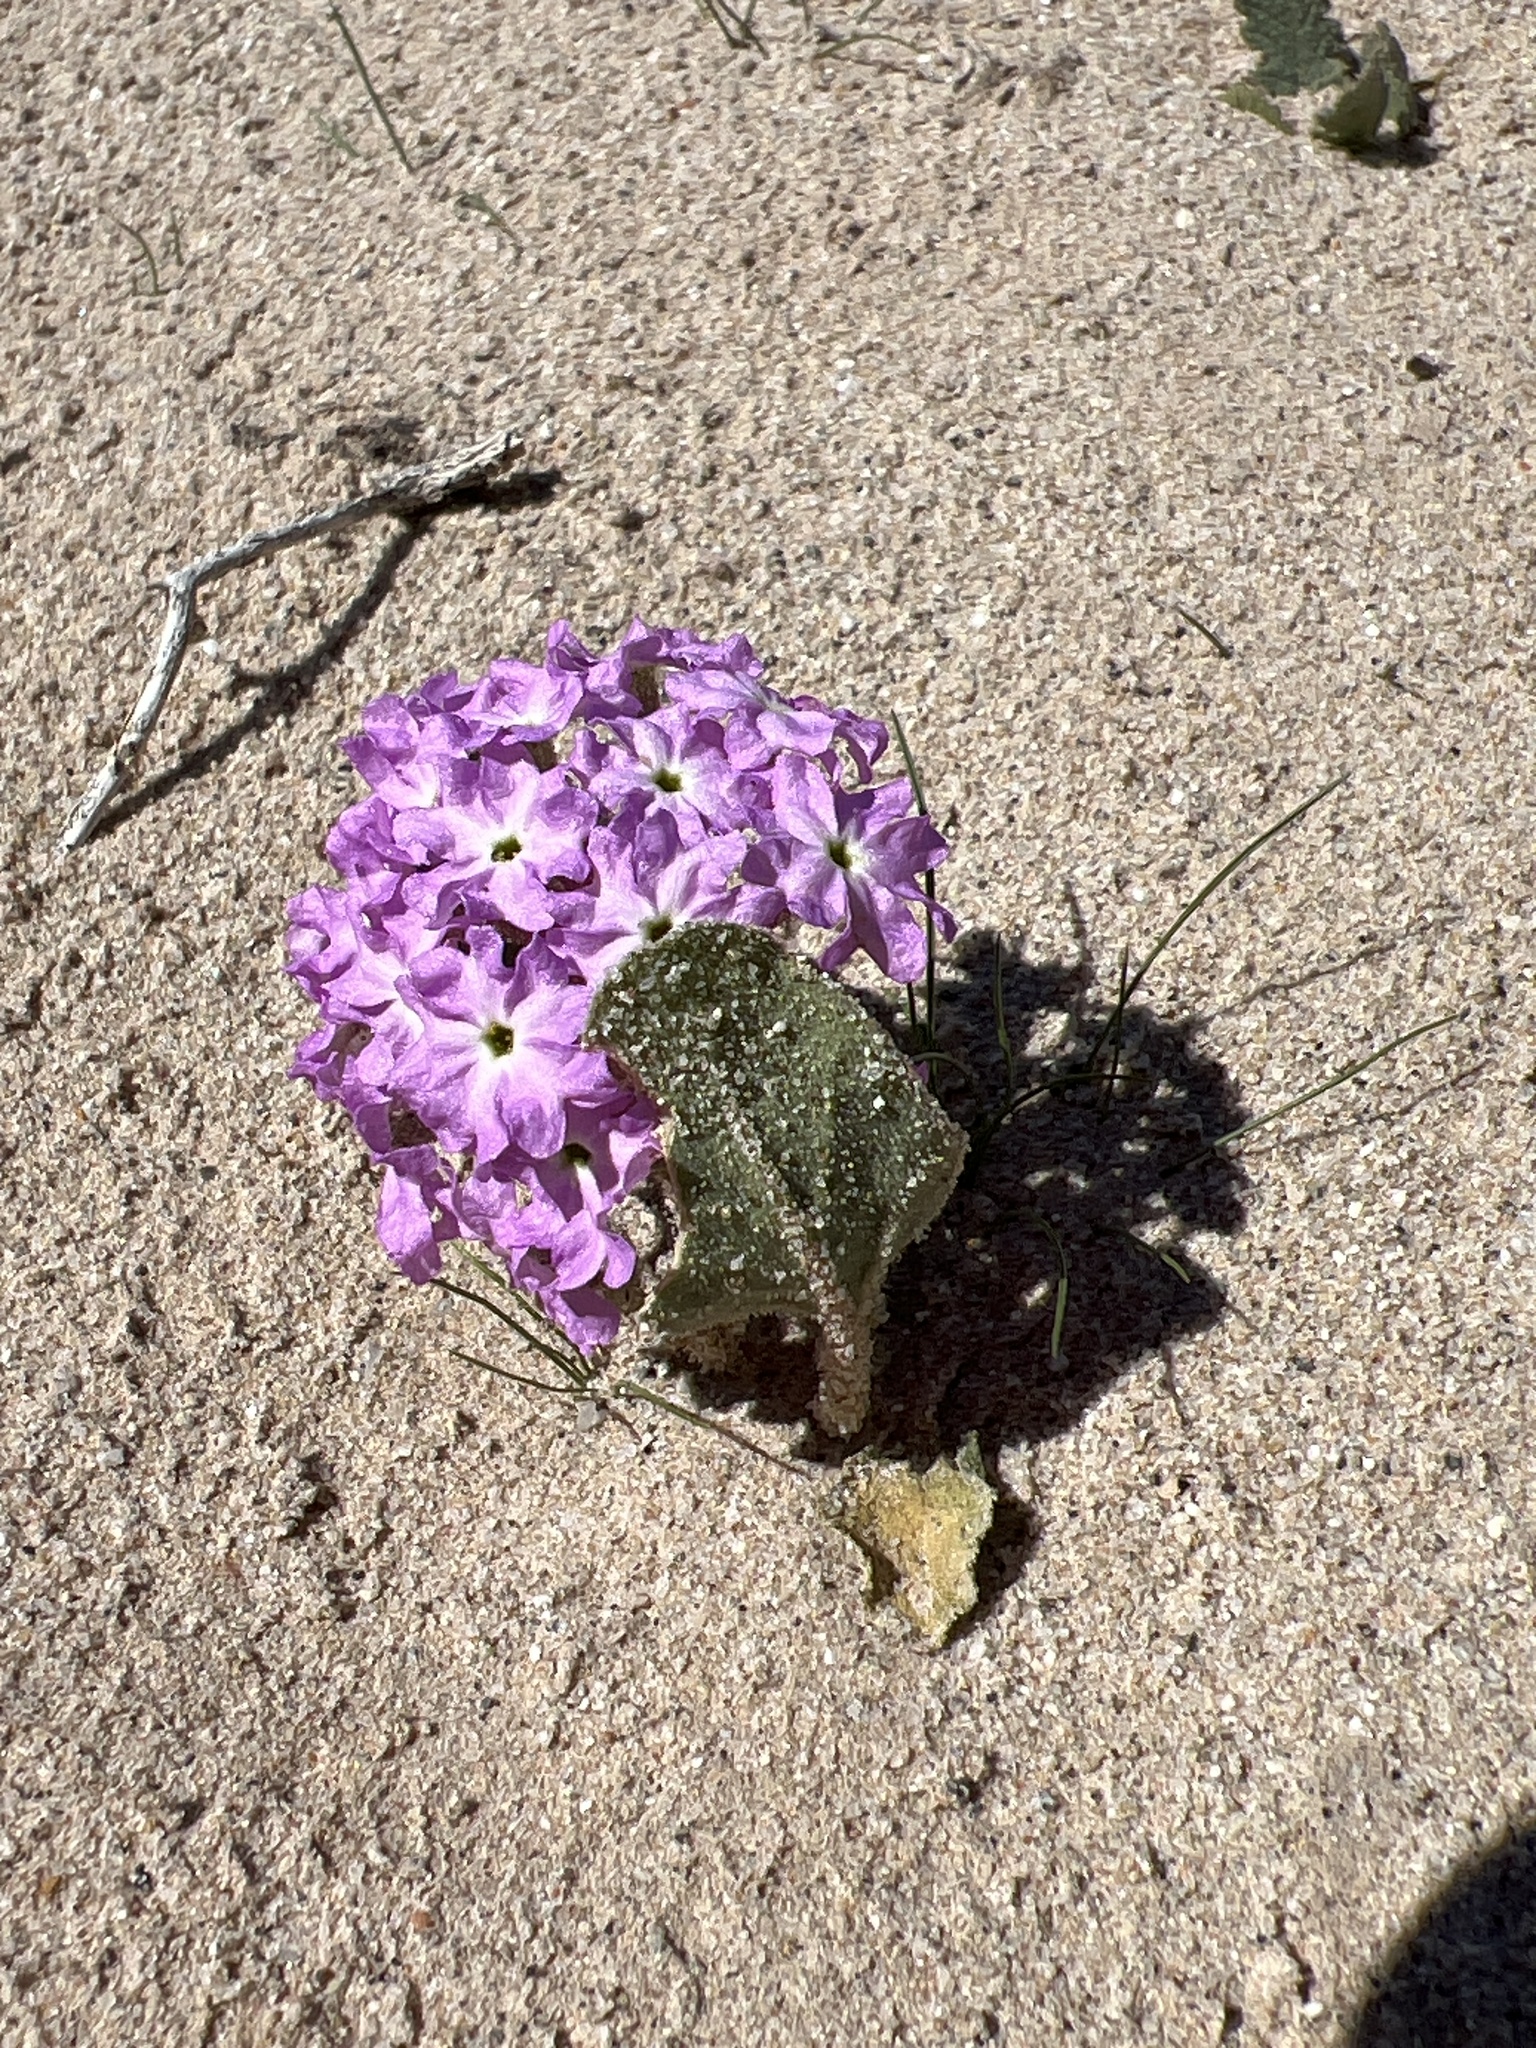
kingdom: Plantae
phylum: Tracheophyta
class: Magnoliopsida
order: Caryophyllales
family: Nyctaginaceae
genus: Abronia
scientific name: Abronia villosa
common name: Desert sand-verbena
